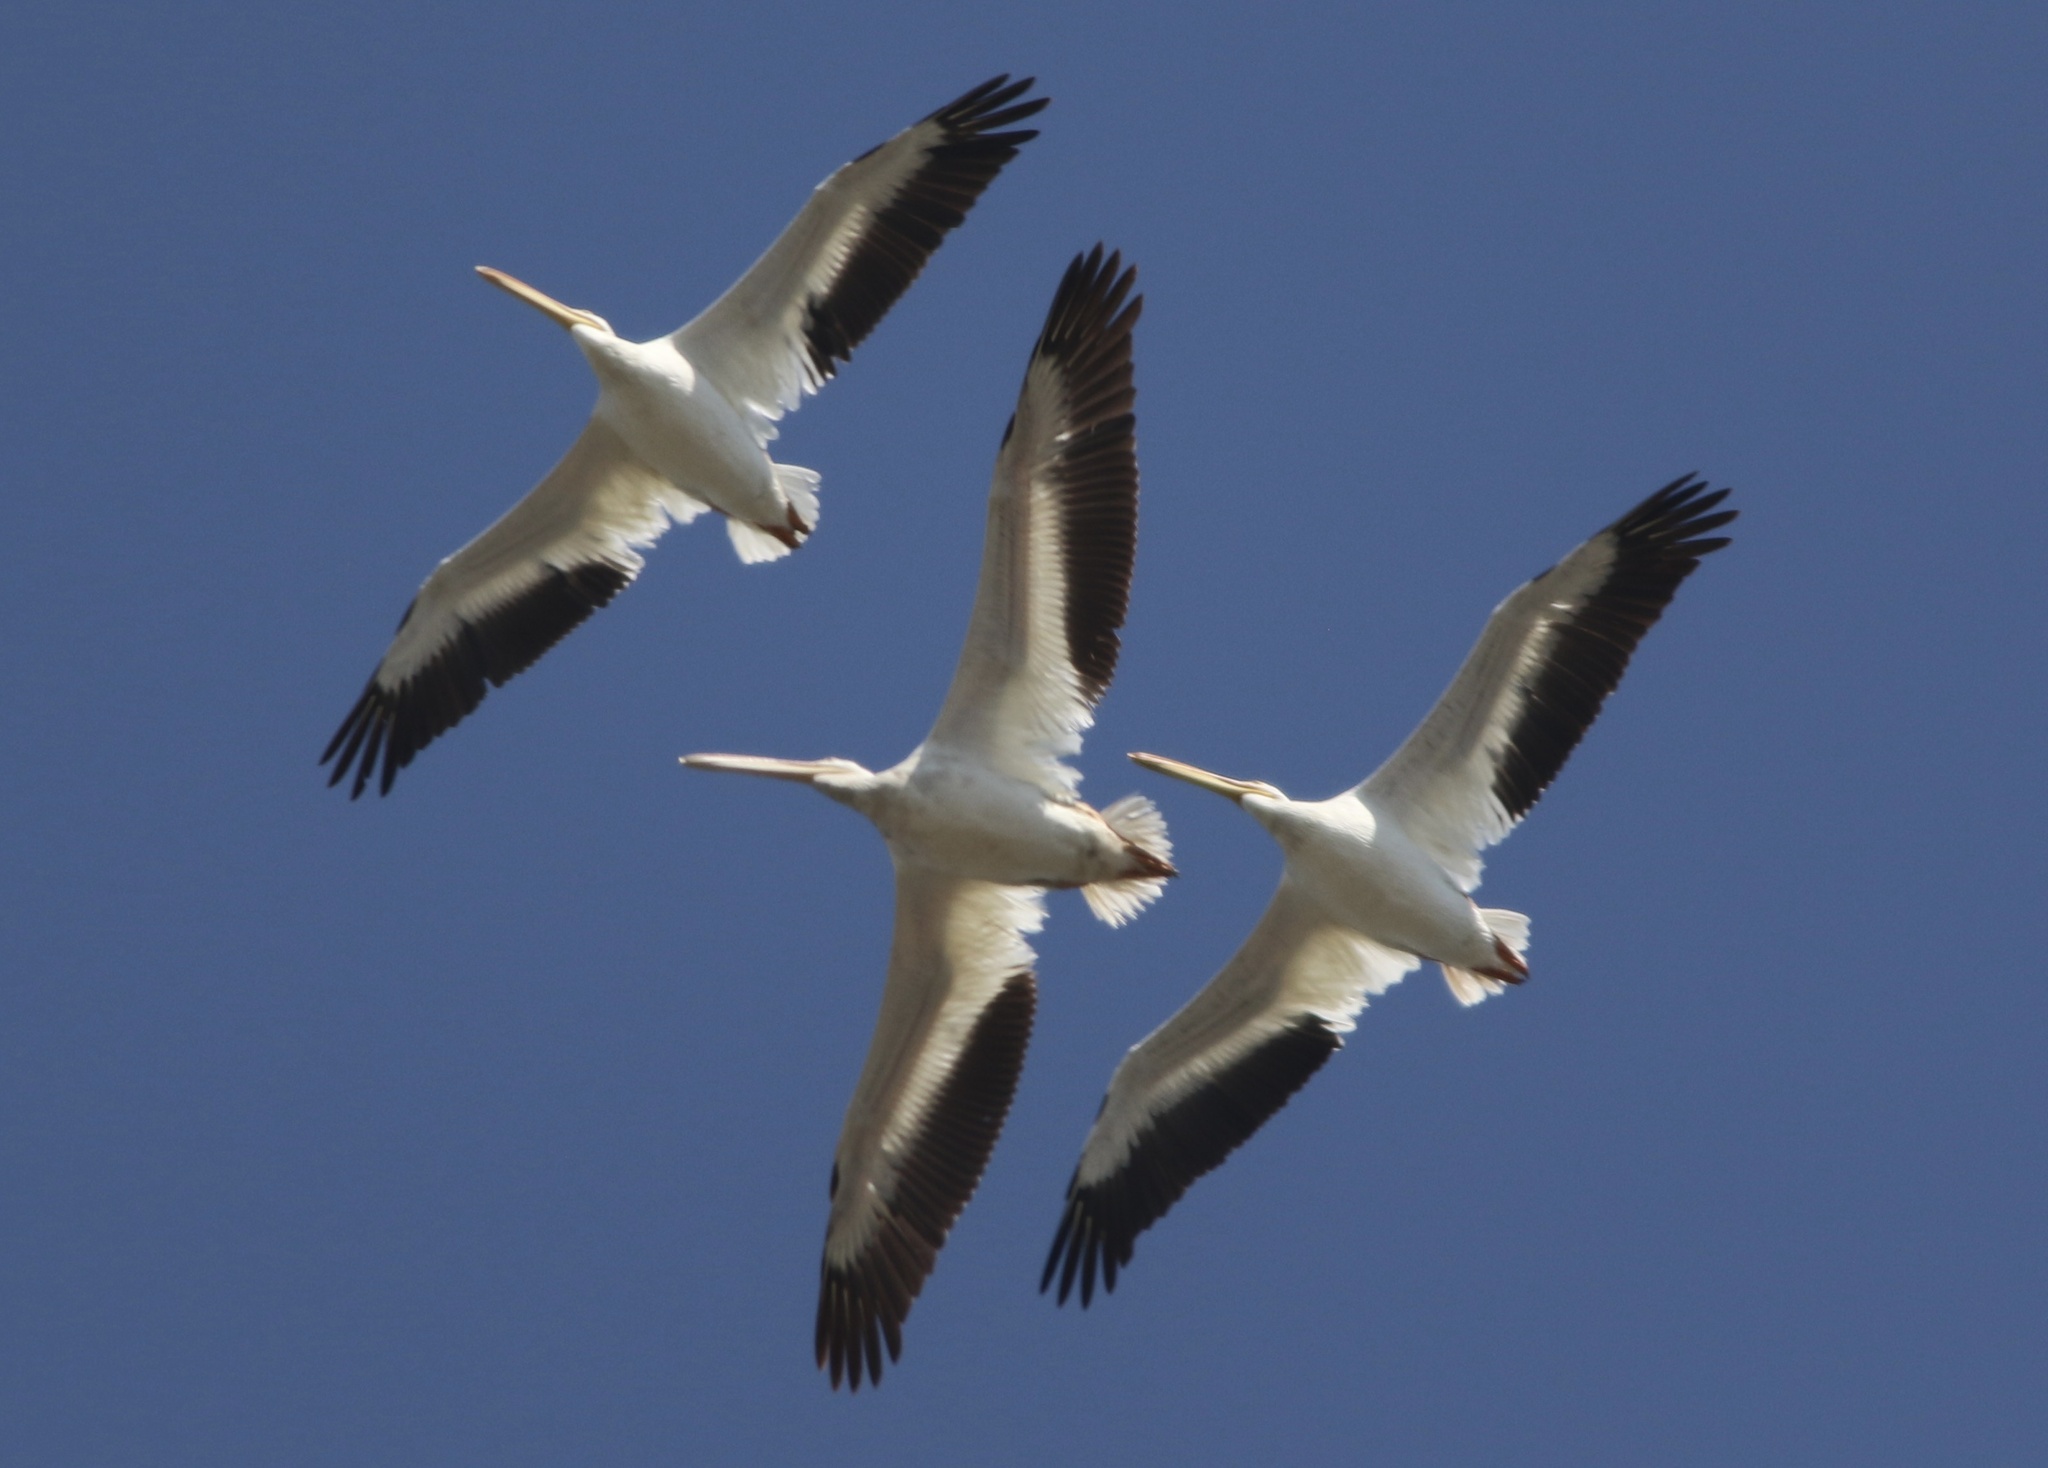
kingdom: Animalia
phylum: Chordata
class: Aves
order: Pelecaniformes
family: Pelecanidae
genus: Pelecanus
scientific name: Pelecanus erythrorhynchos
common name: American white pelican
